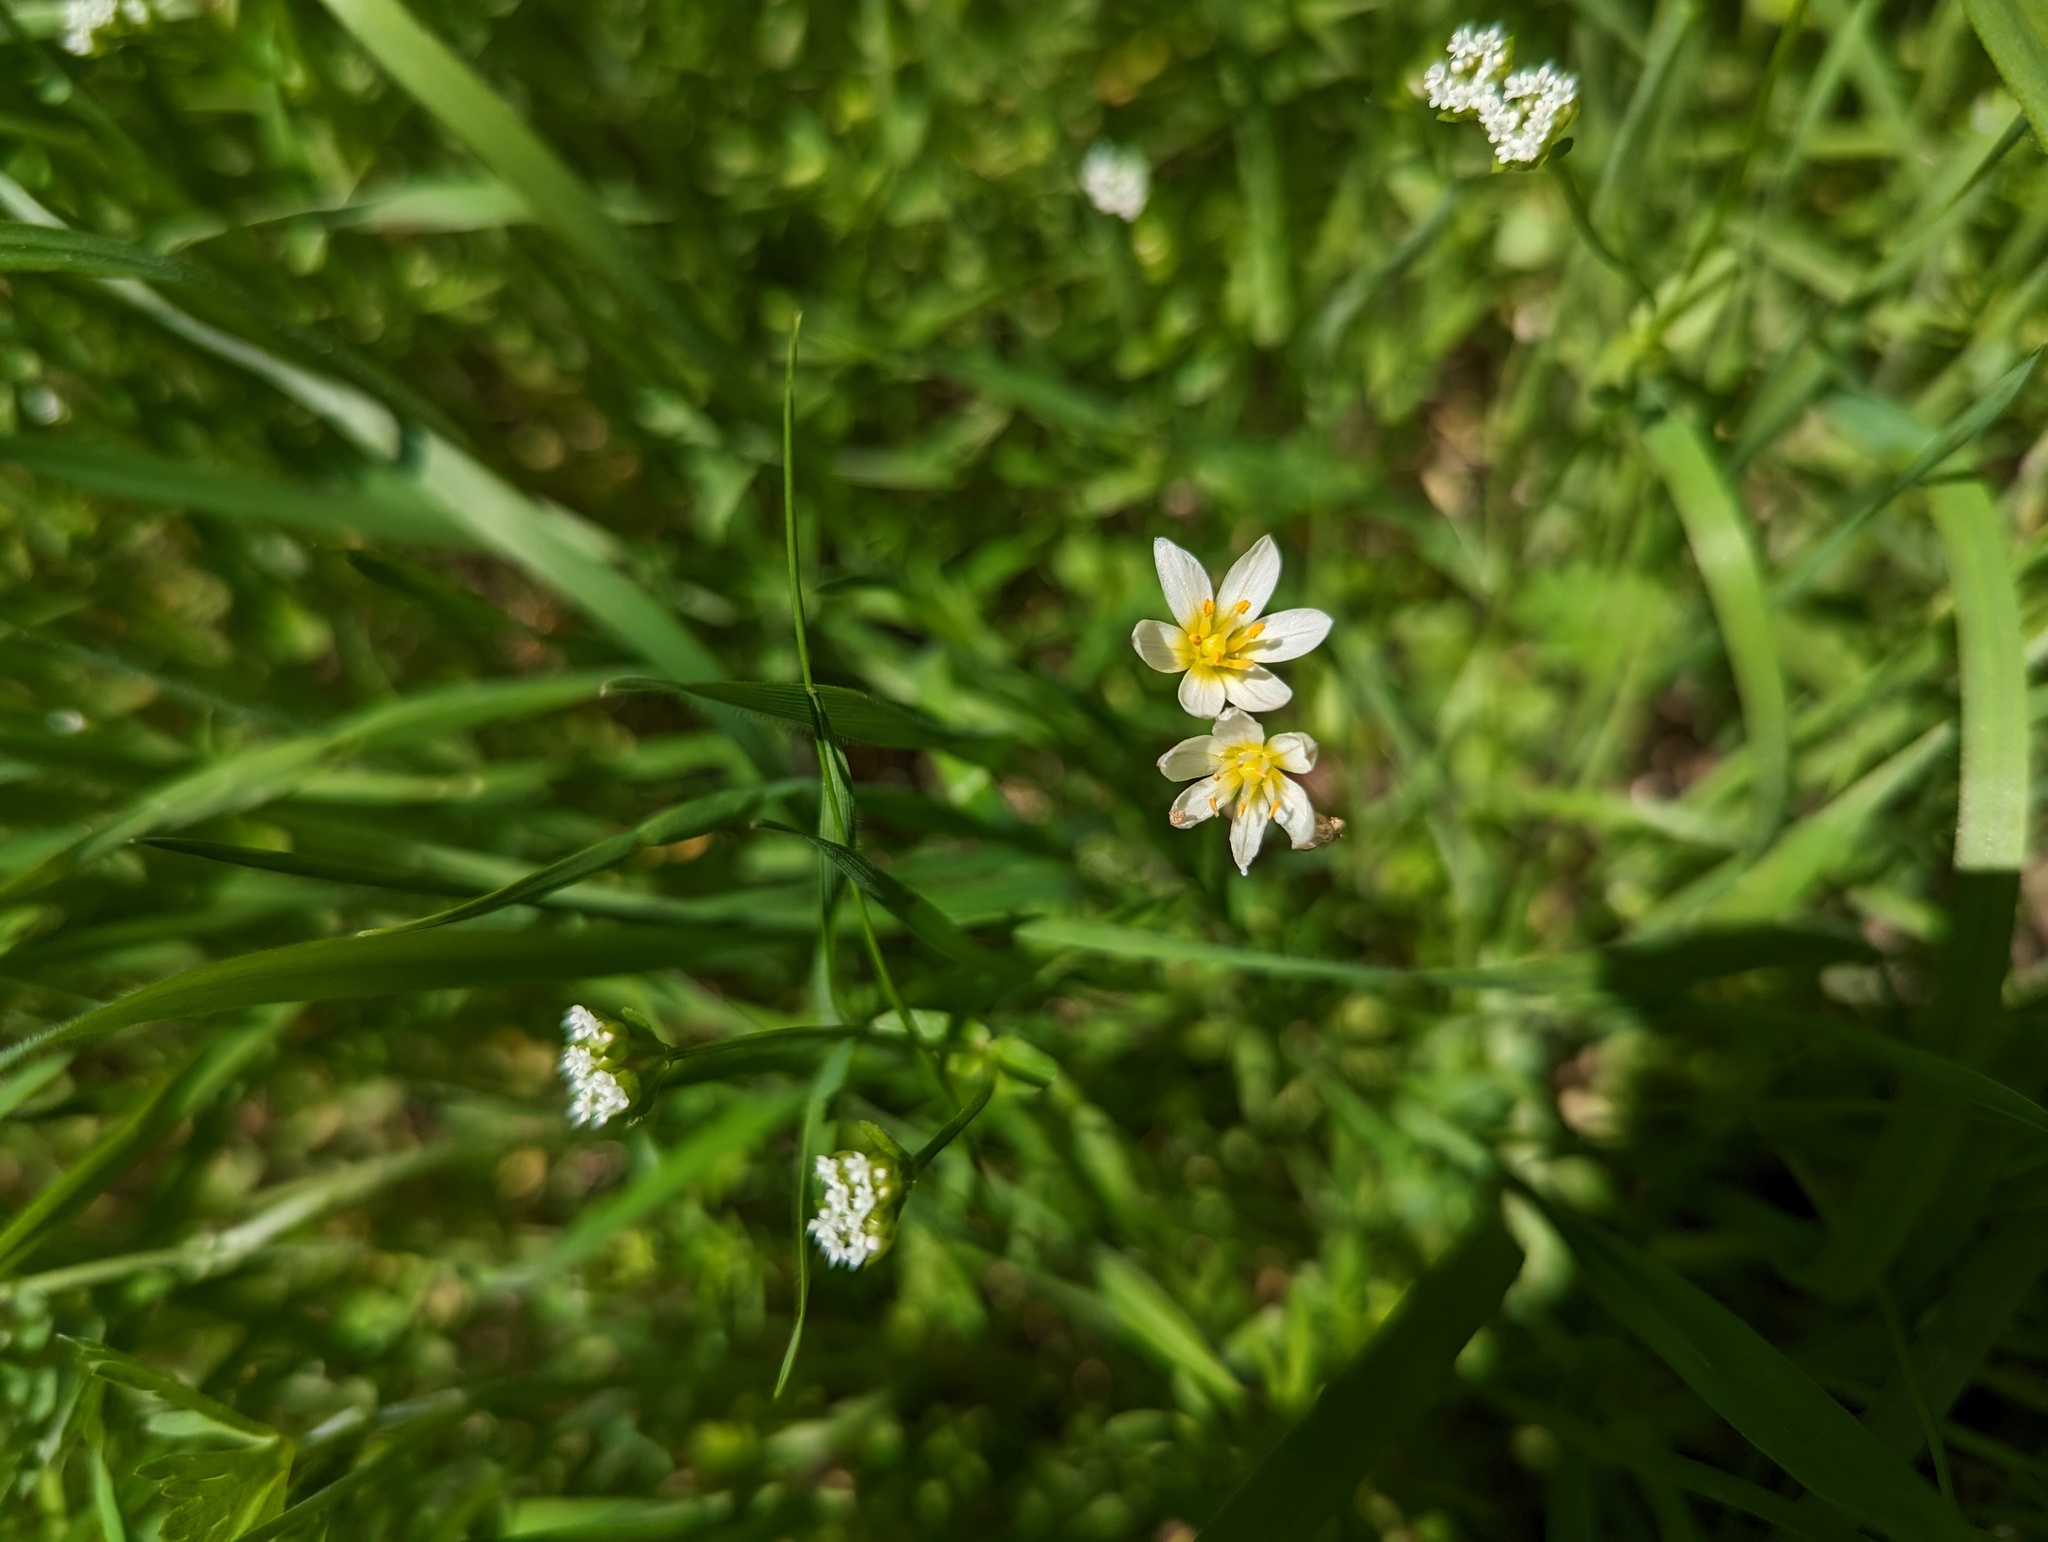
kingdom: Plantae
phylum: Tracheophyta
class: Liliopsida
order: Asparagales
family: Amaryllidaceae
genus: Nothoscordum
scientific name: Nothoscordum bivalve
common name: Crow-poison
